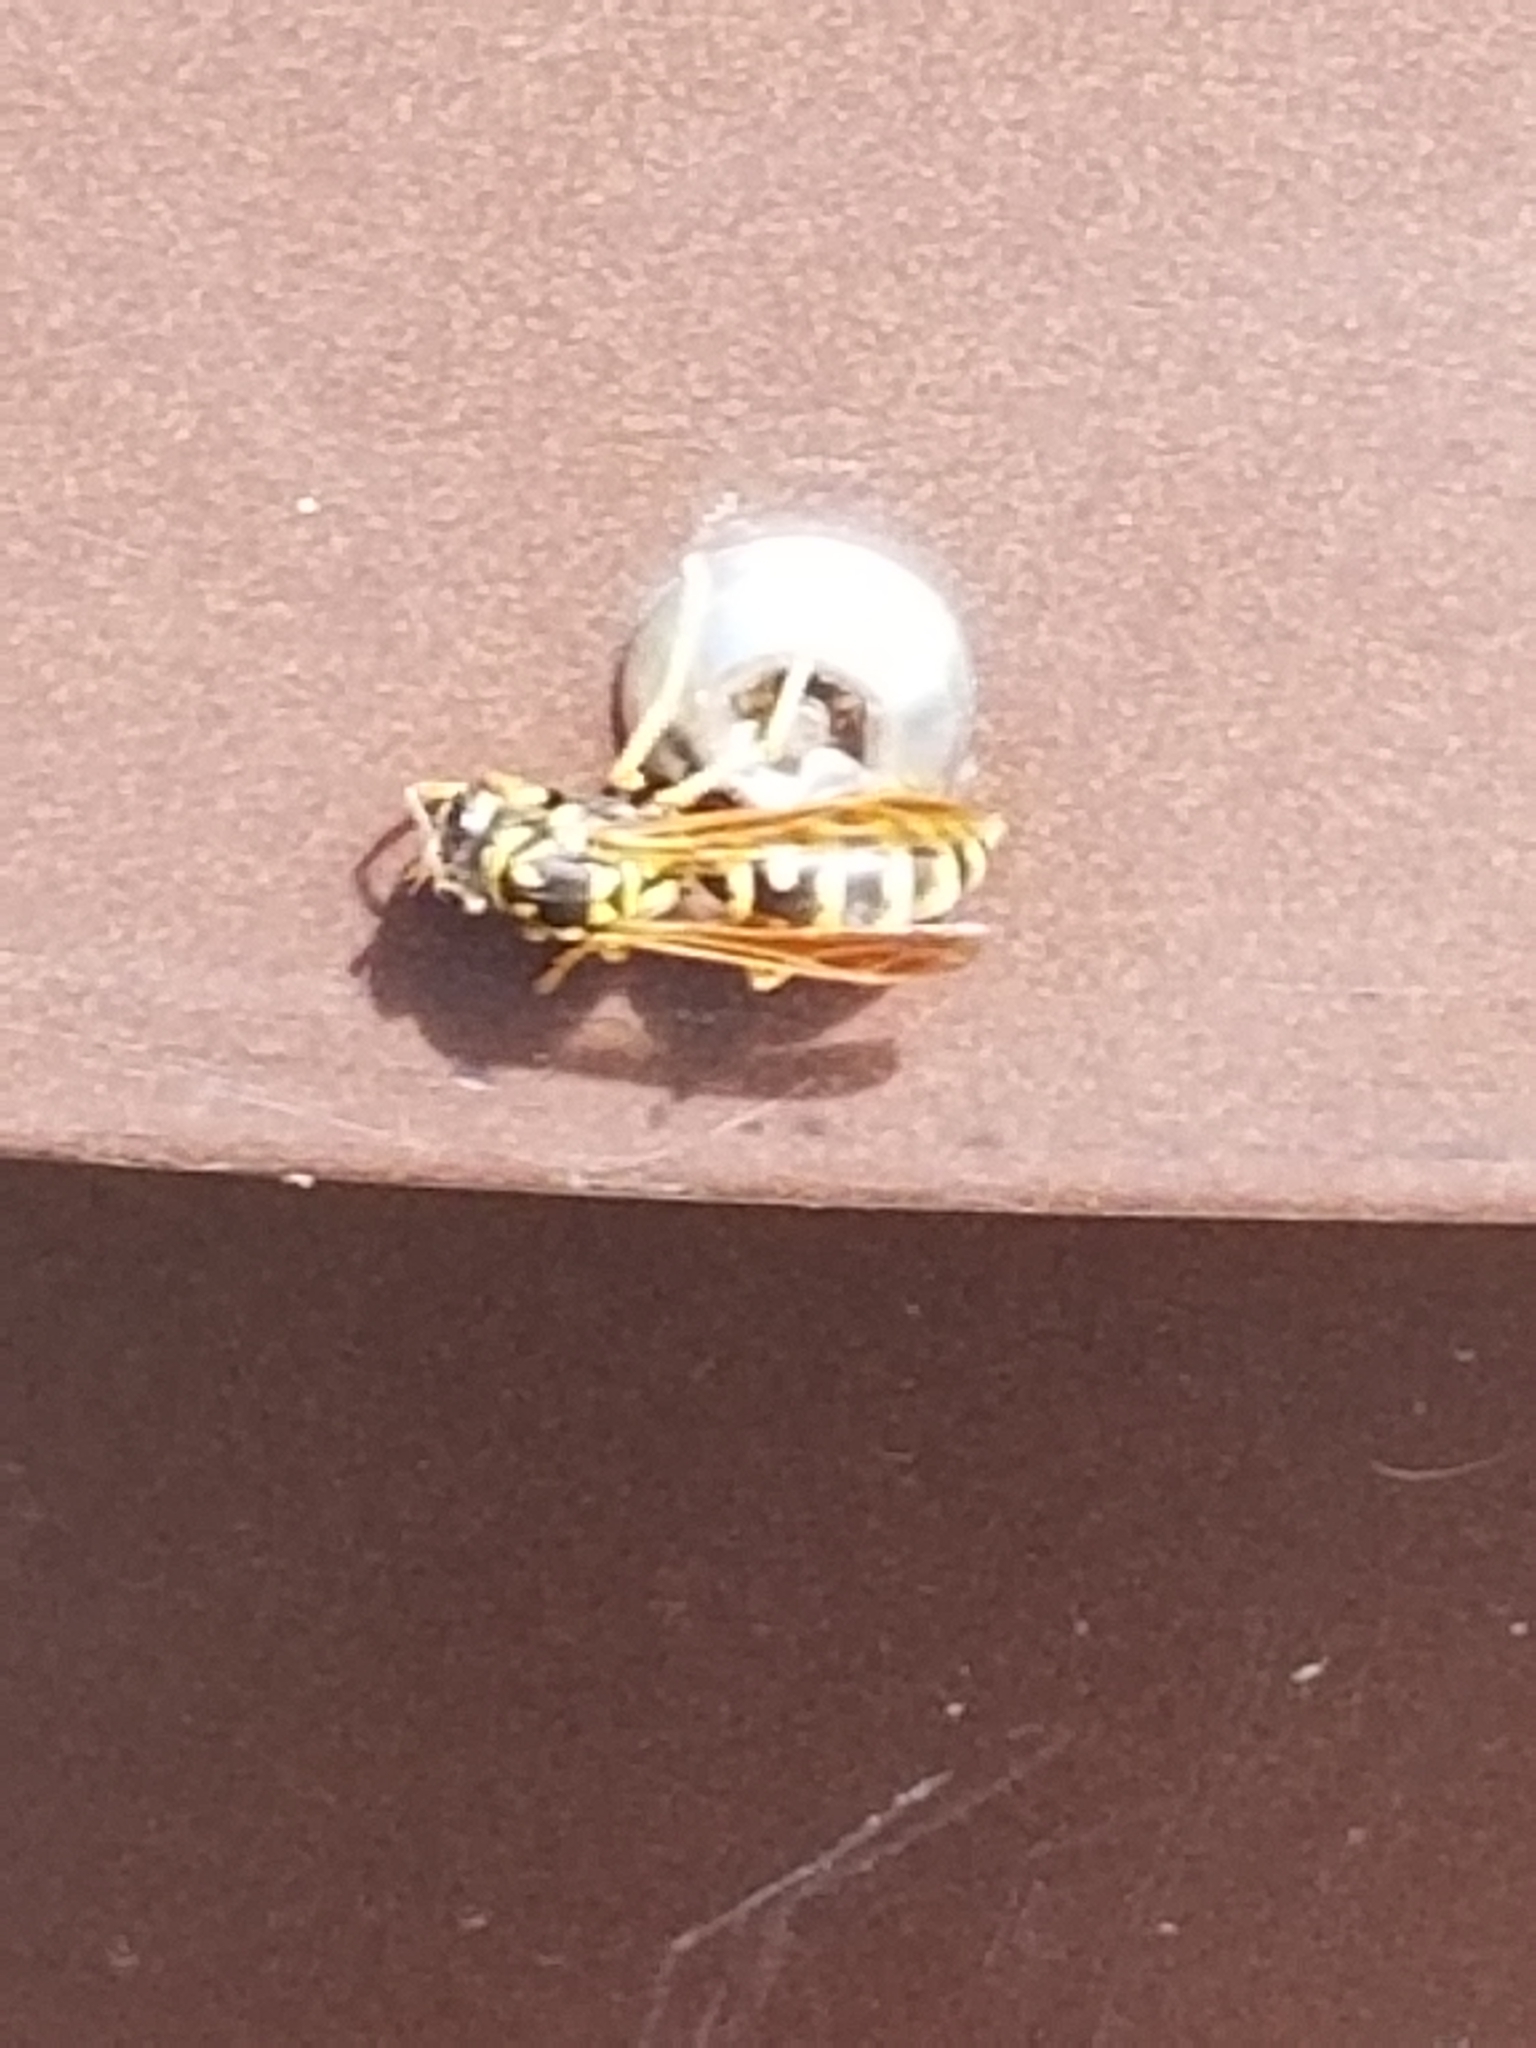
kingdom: Animalia
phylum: Arthropoda
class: Insecta
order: Hymenoptera
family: Eumenidae
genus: Polistes
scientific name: Polistes dominula
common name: Paper wasp
